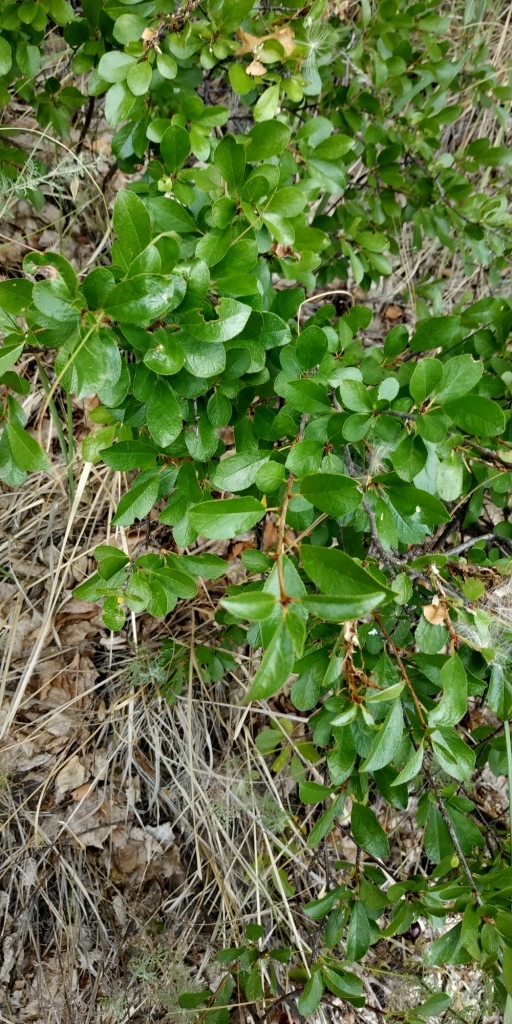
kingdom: Plantae
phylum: Tracheophyta
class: Magnoliopsida
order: Rosales
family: Rosaceae
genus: Prunus
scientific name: Prunus fruticosa
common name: European dwarf cherry
